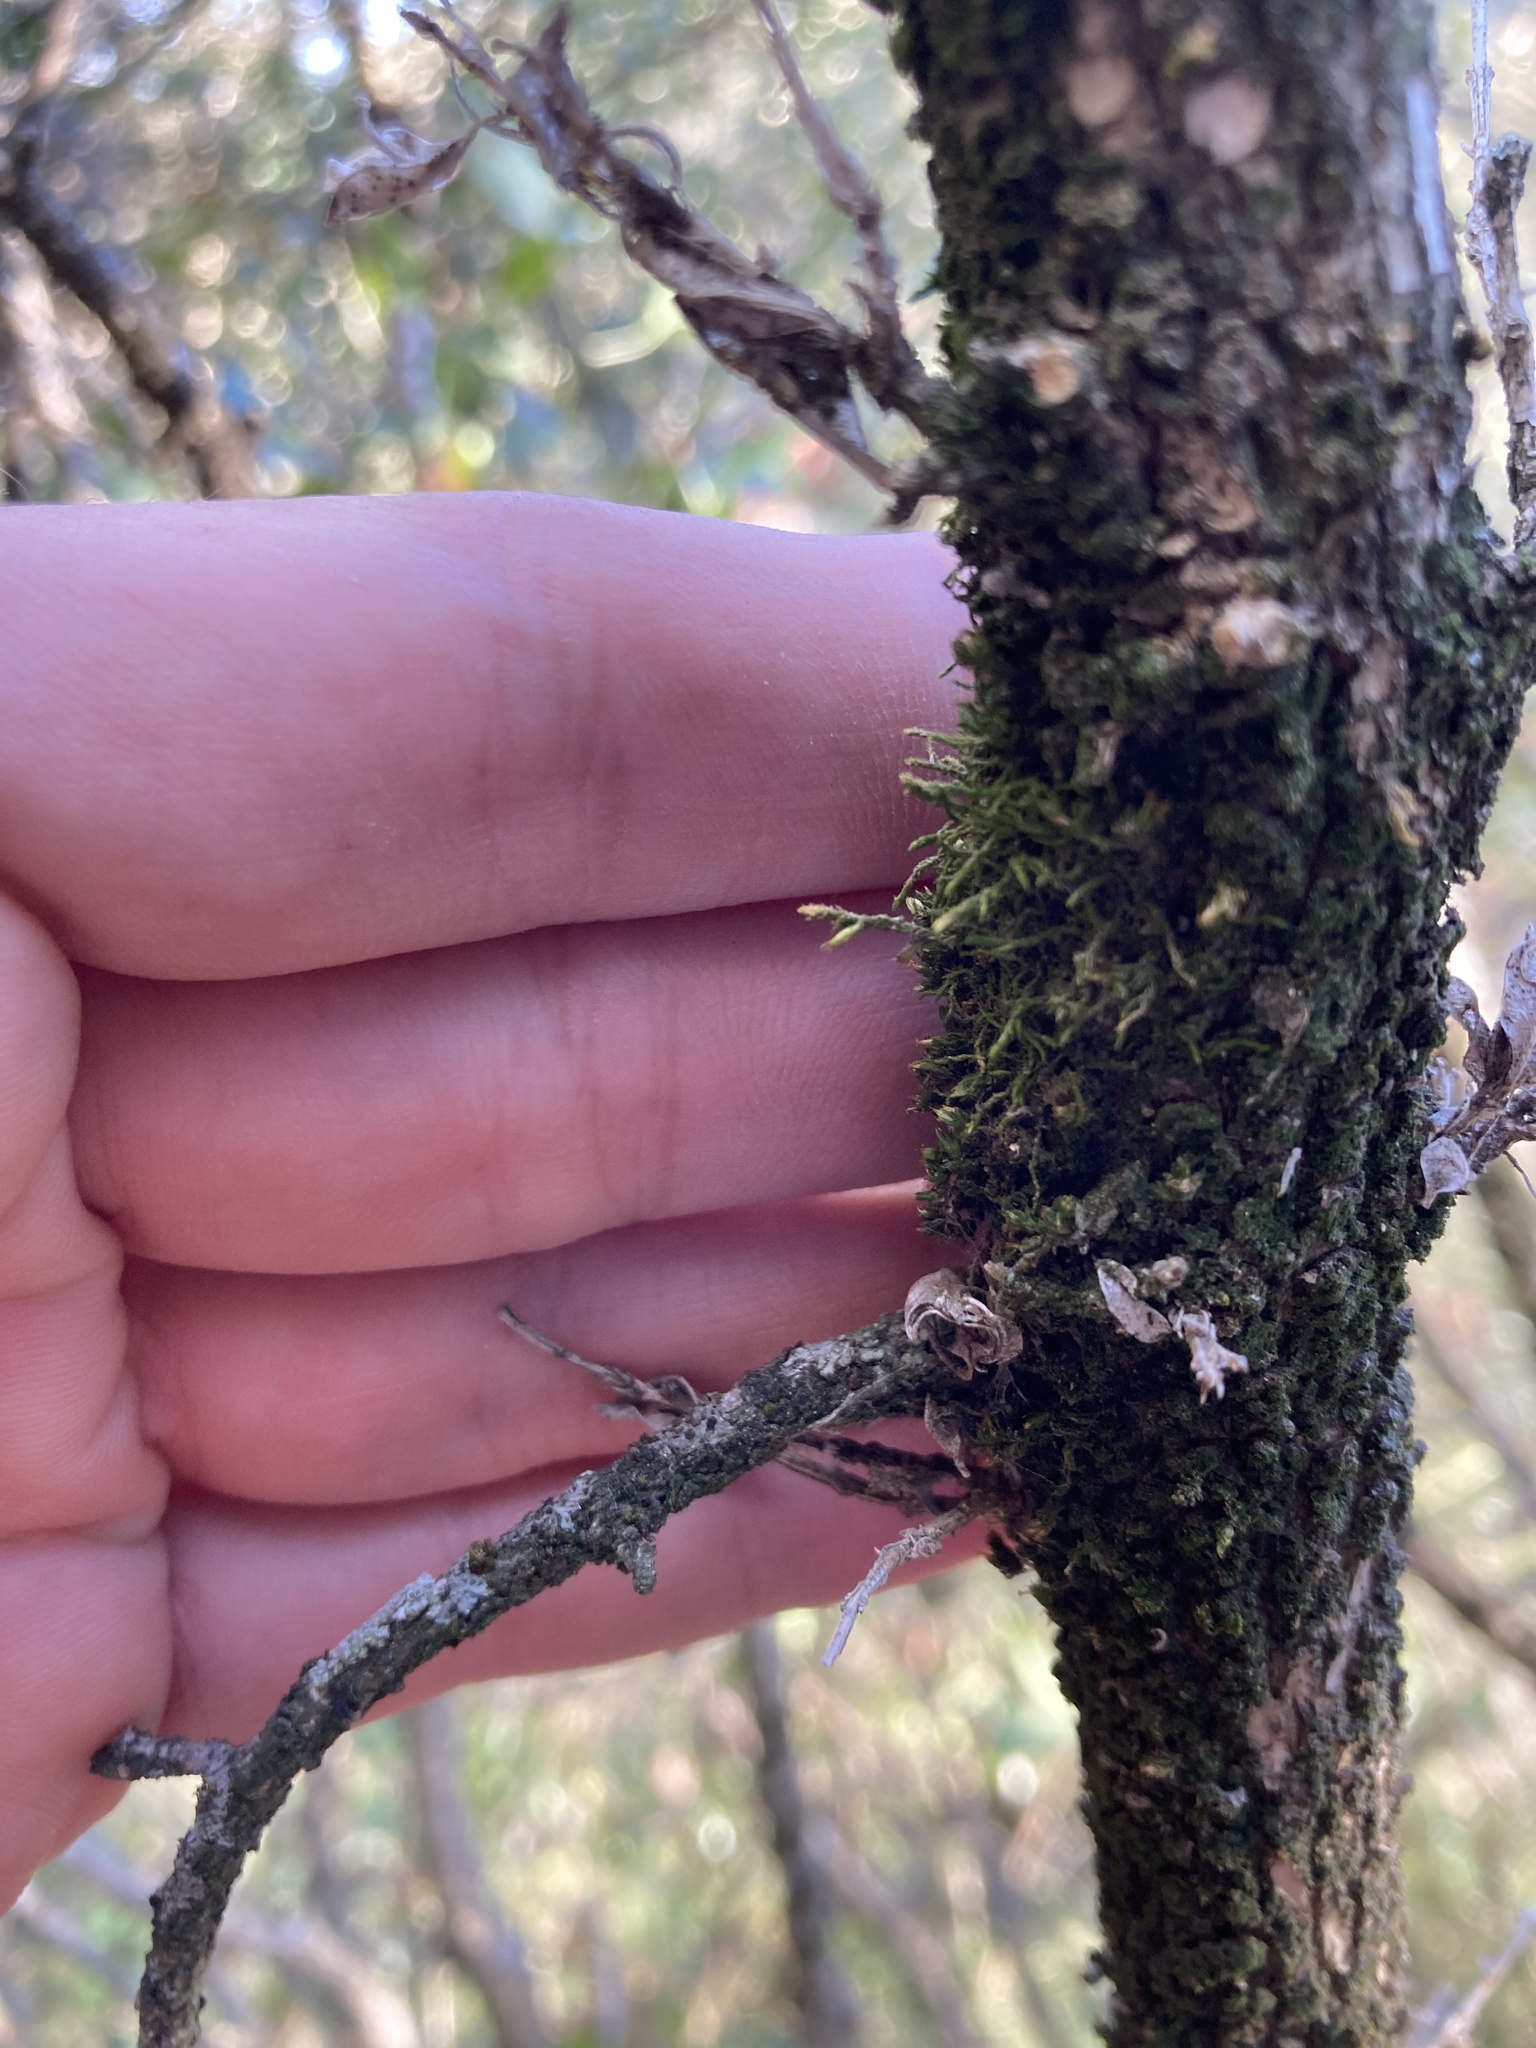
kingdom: Plantae
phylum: Bryophyta
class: Bryopsida
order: Hypnales
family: Cryphaeaceae
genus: Cryphaea
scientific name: Cryphaea heteromalla
